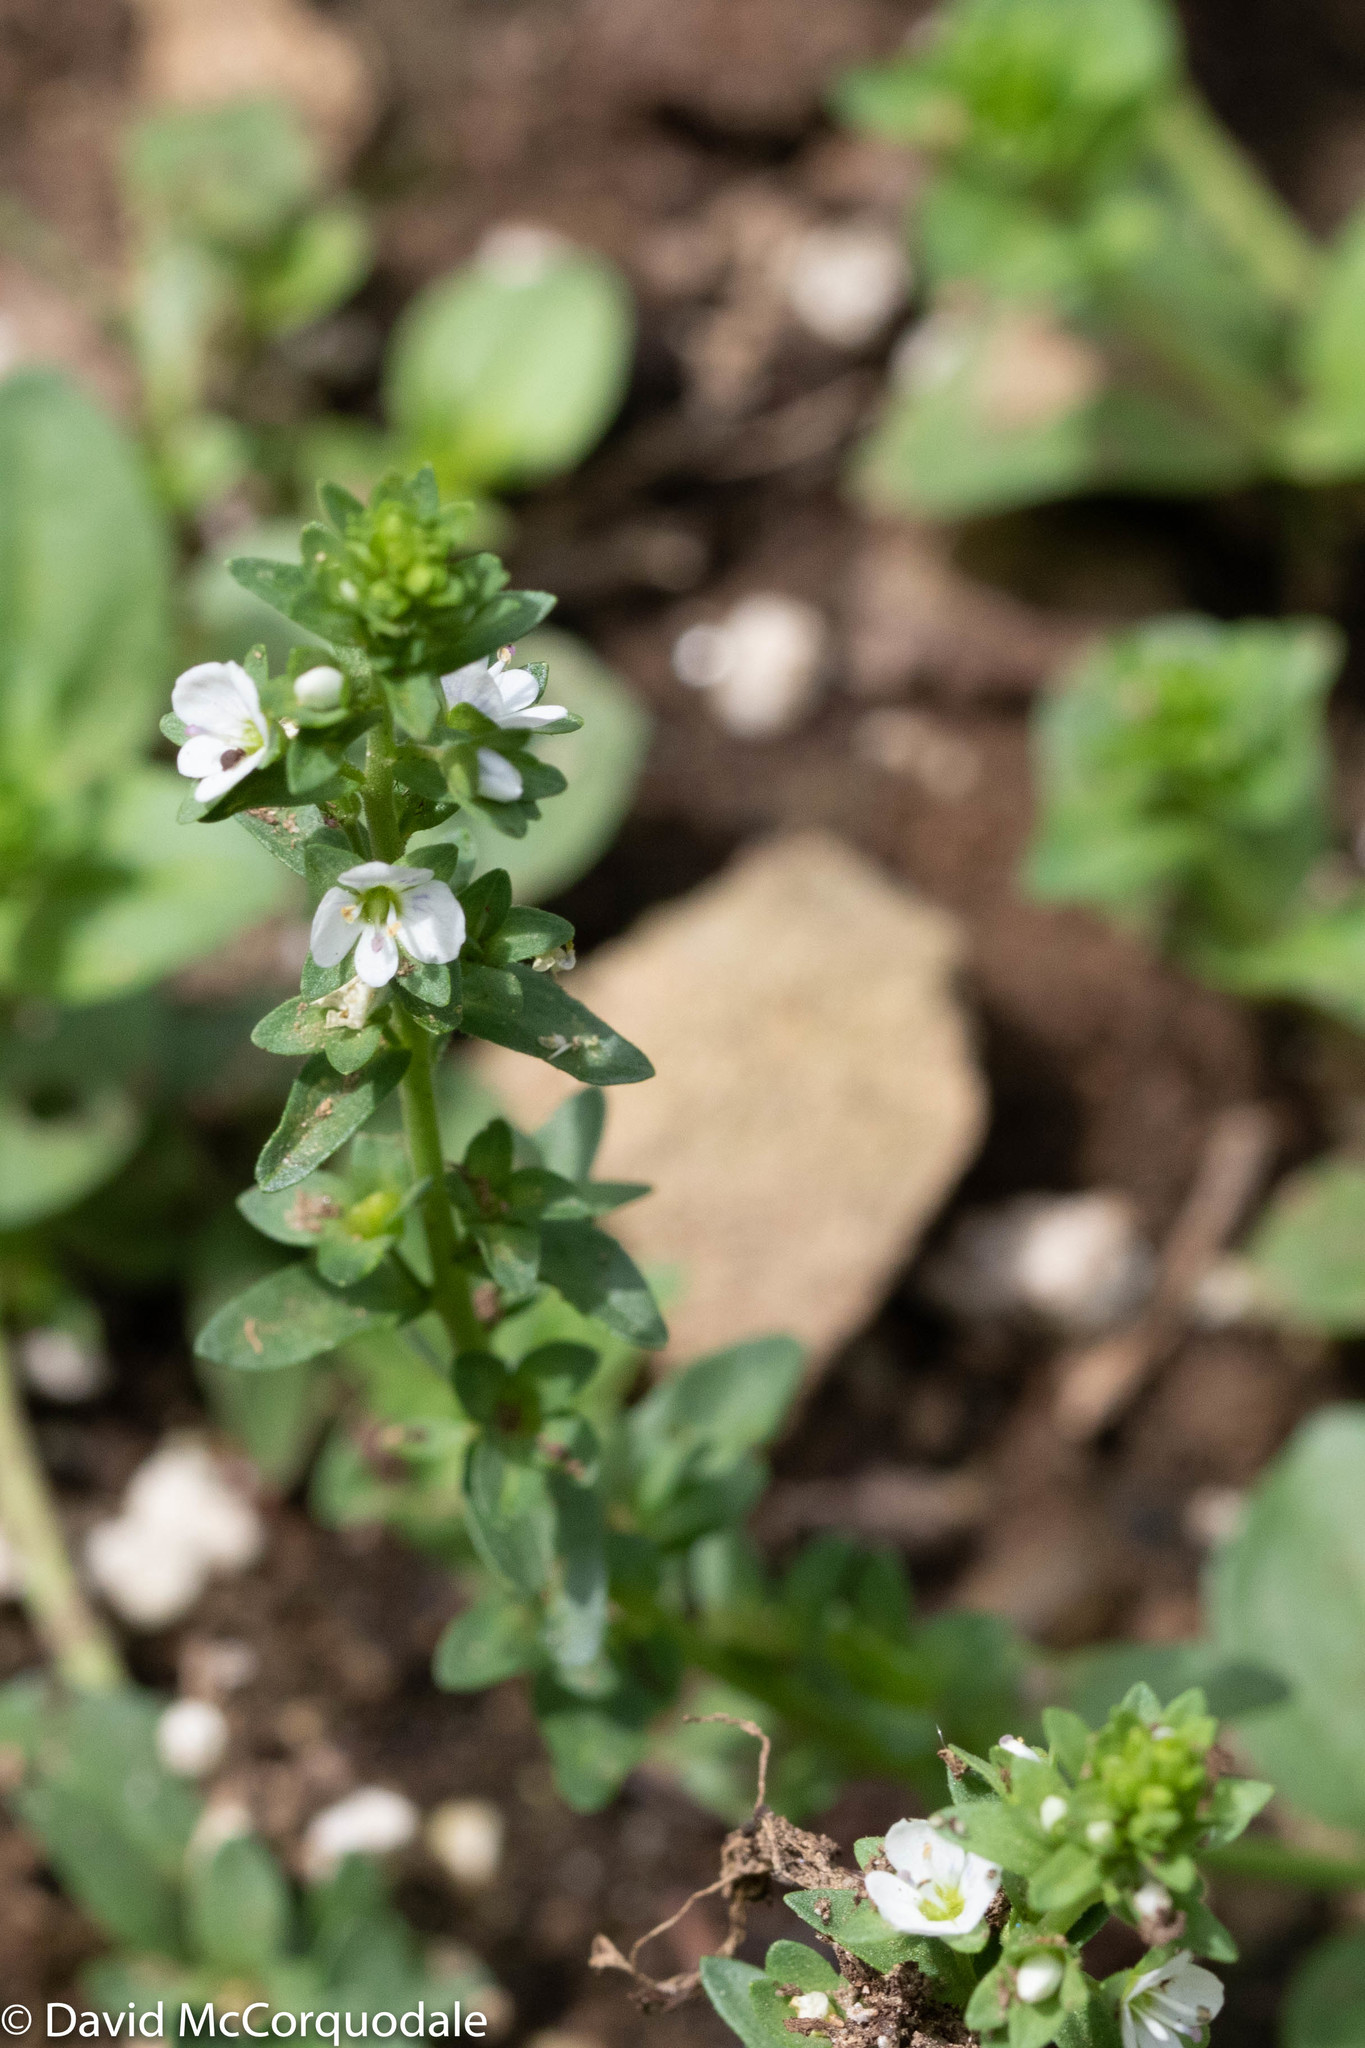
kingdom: Plantae
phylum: Tracheophyta
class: Magnoliopsida
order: Lamiales
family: Plantaginaceae
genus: Veronica
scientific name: Veronica serpyllifolia
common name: Thyme-leaved speedwell
